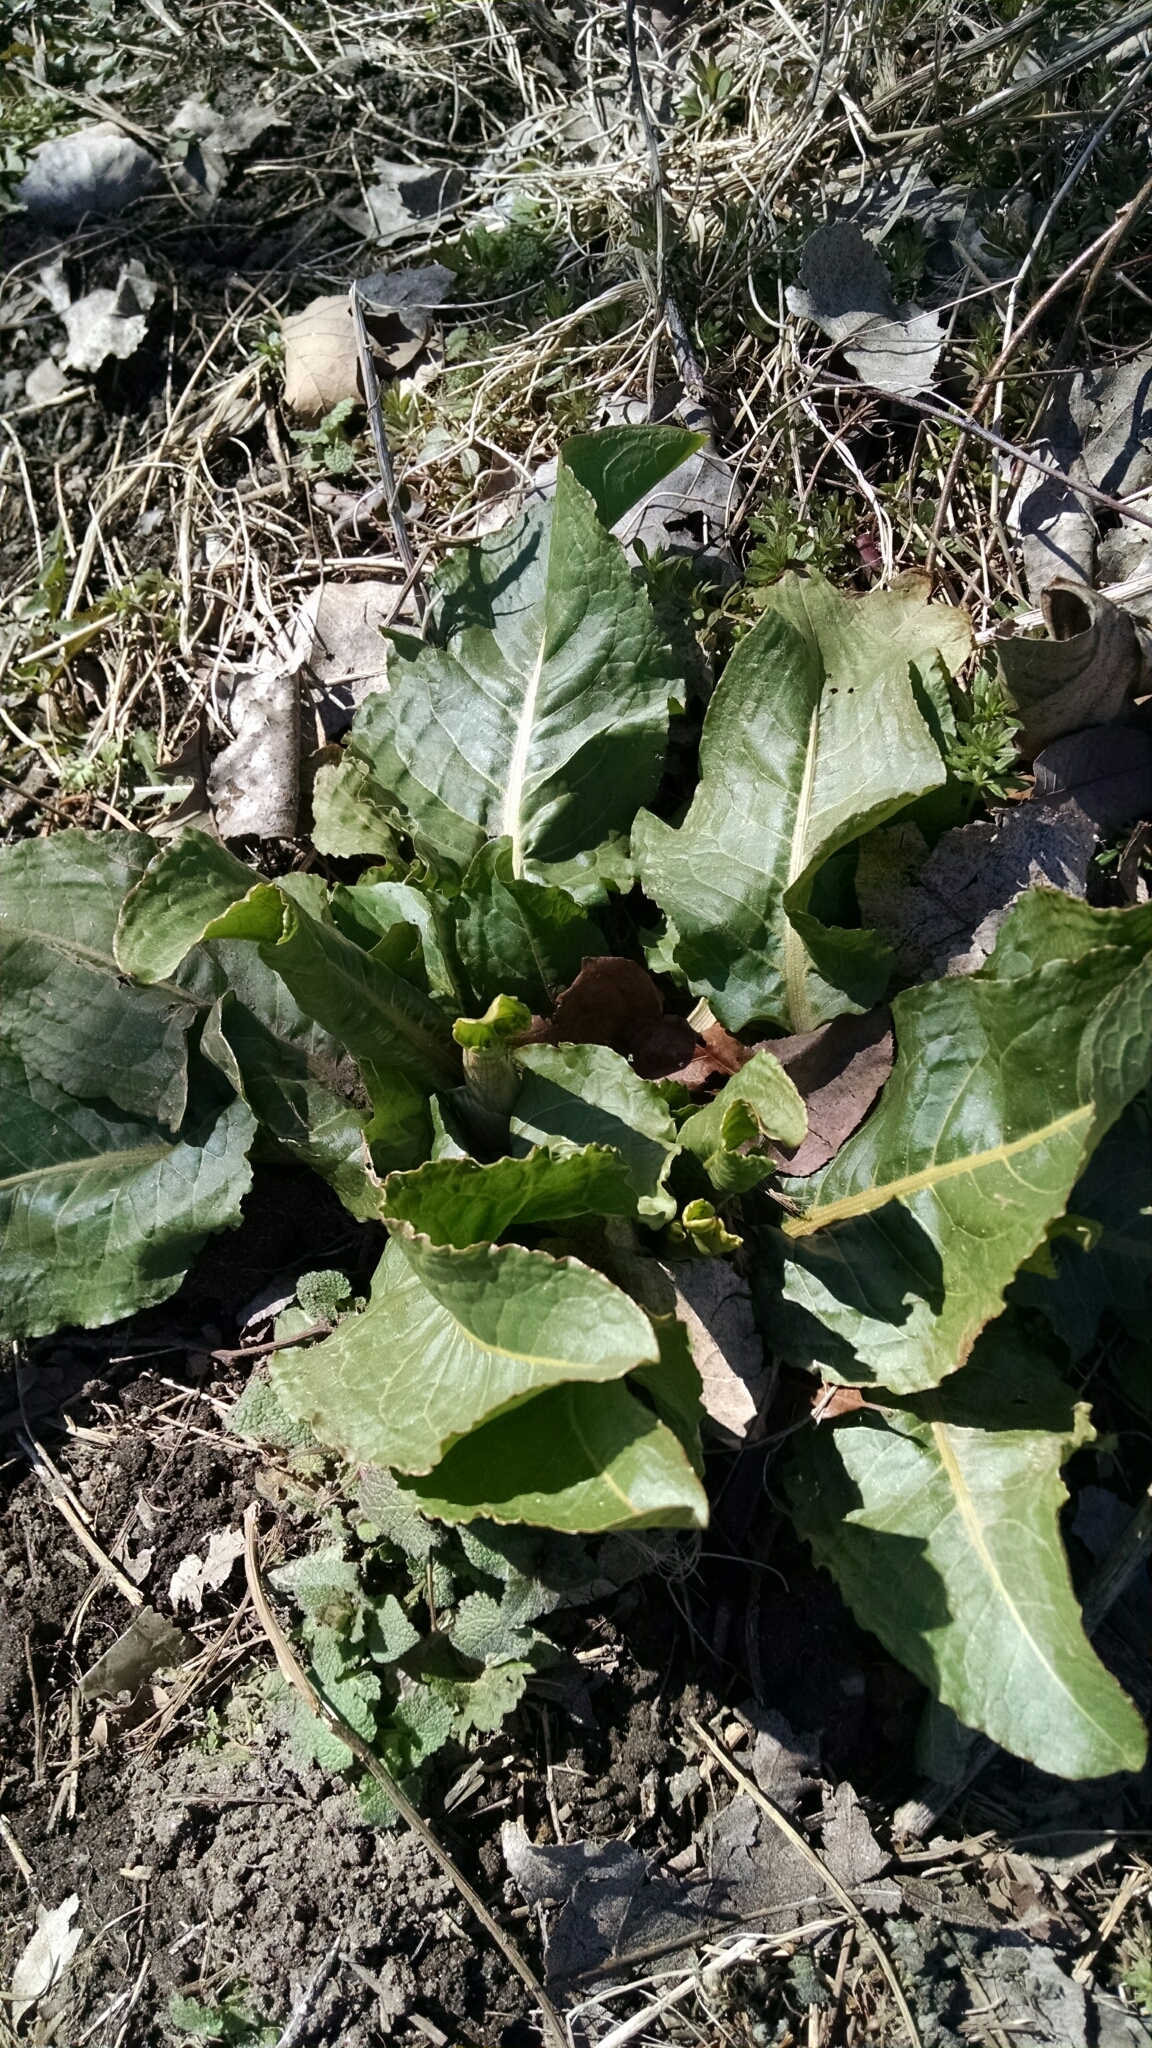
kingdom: Plantae
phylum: Tracheophyta
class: Magnoliopsida
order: Caryophyllales
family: Polygonaceae
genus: Rumex
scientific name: Rumex obtusifolius
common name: Bitter dock
